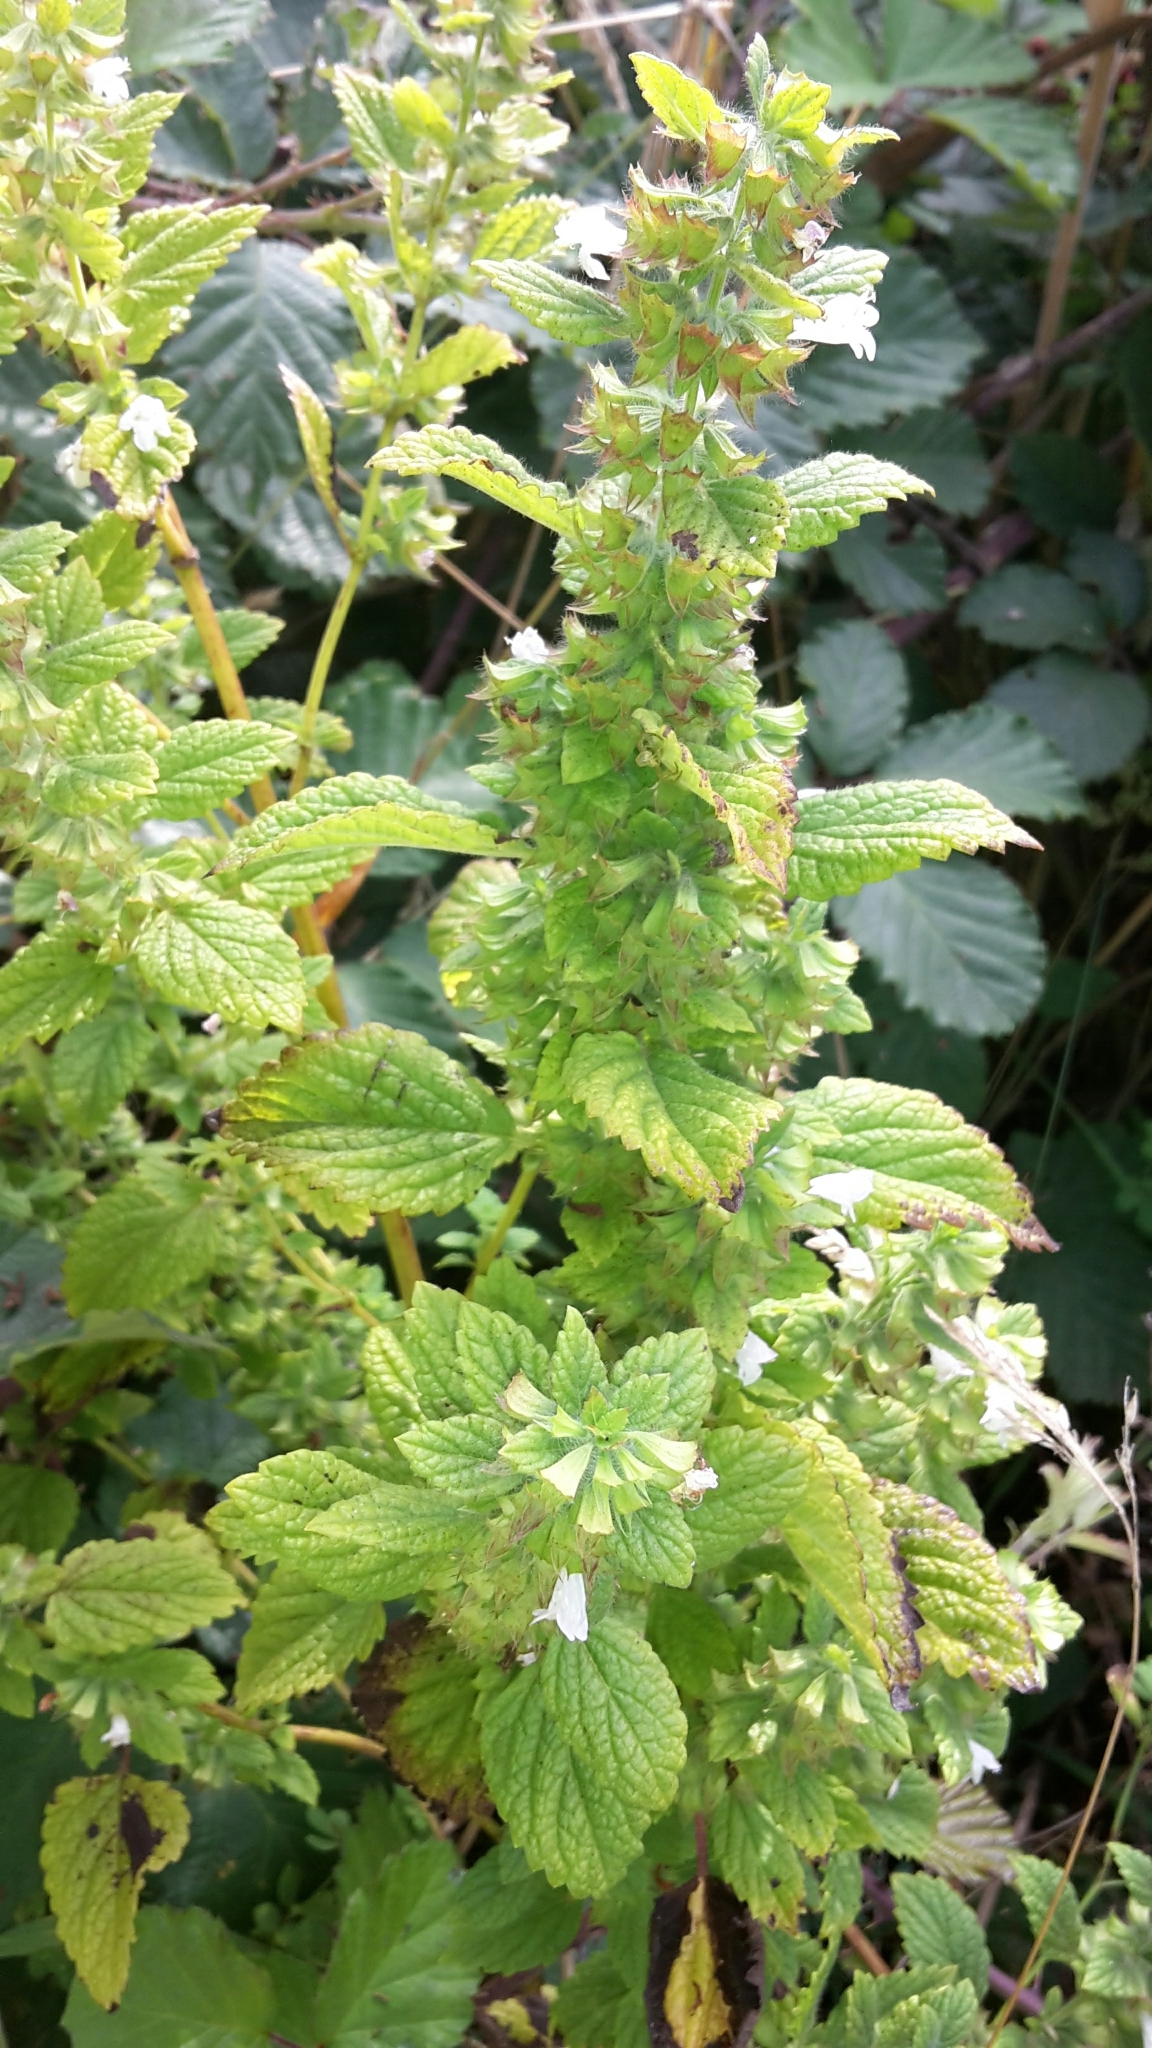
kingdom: Plantae
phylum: Tracheophyta
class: Magnoliopsida
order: Lamiales
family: Lamiaceae
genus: Melissa
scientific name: Melissa officinalis
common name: Balm
